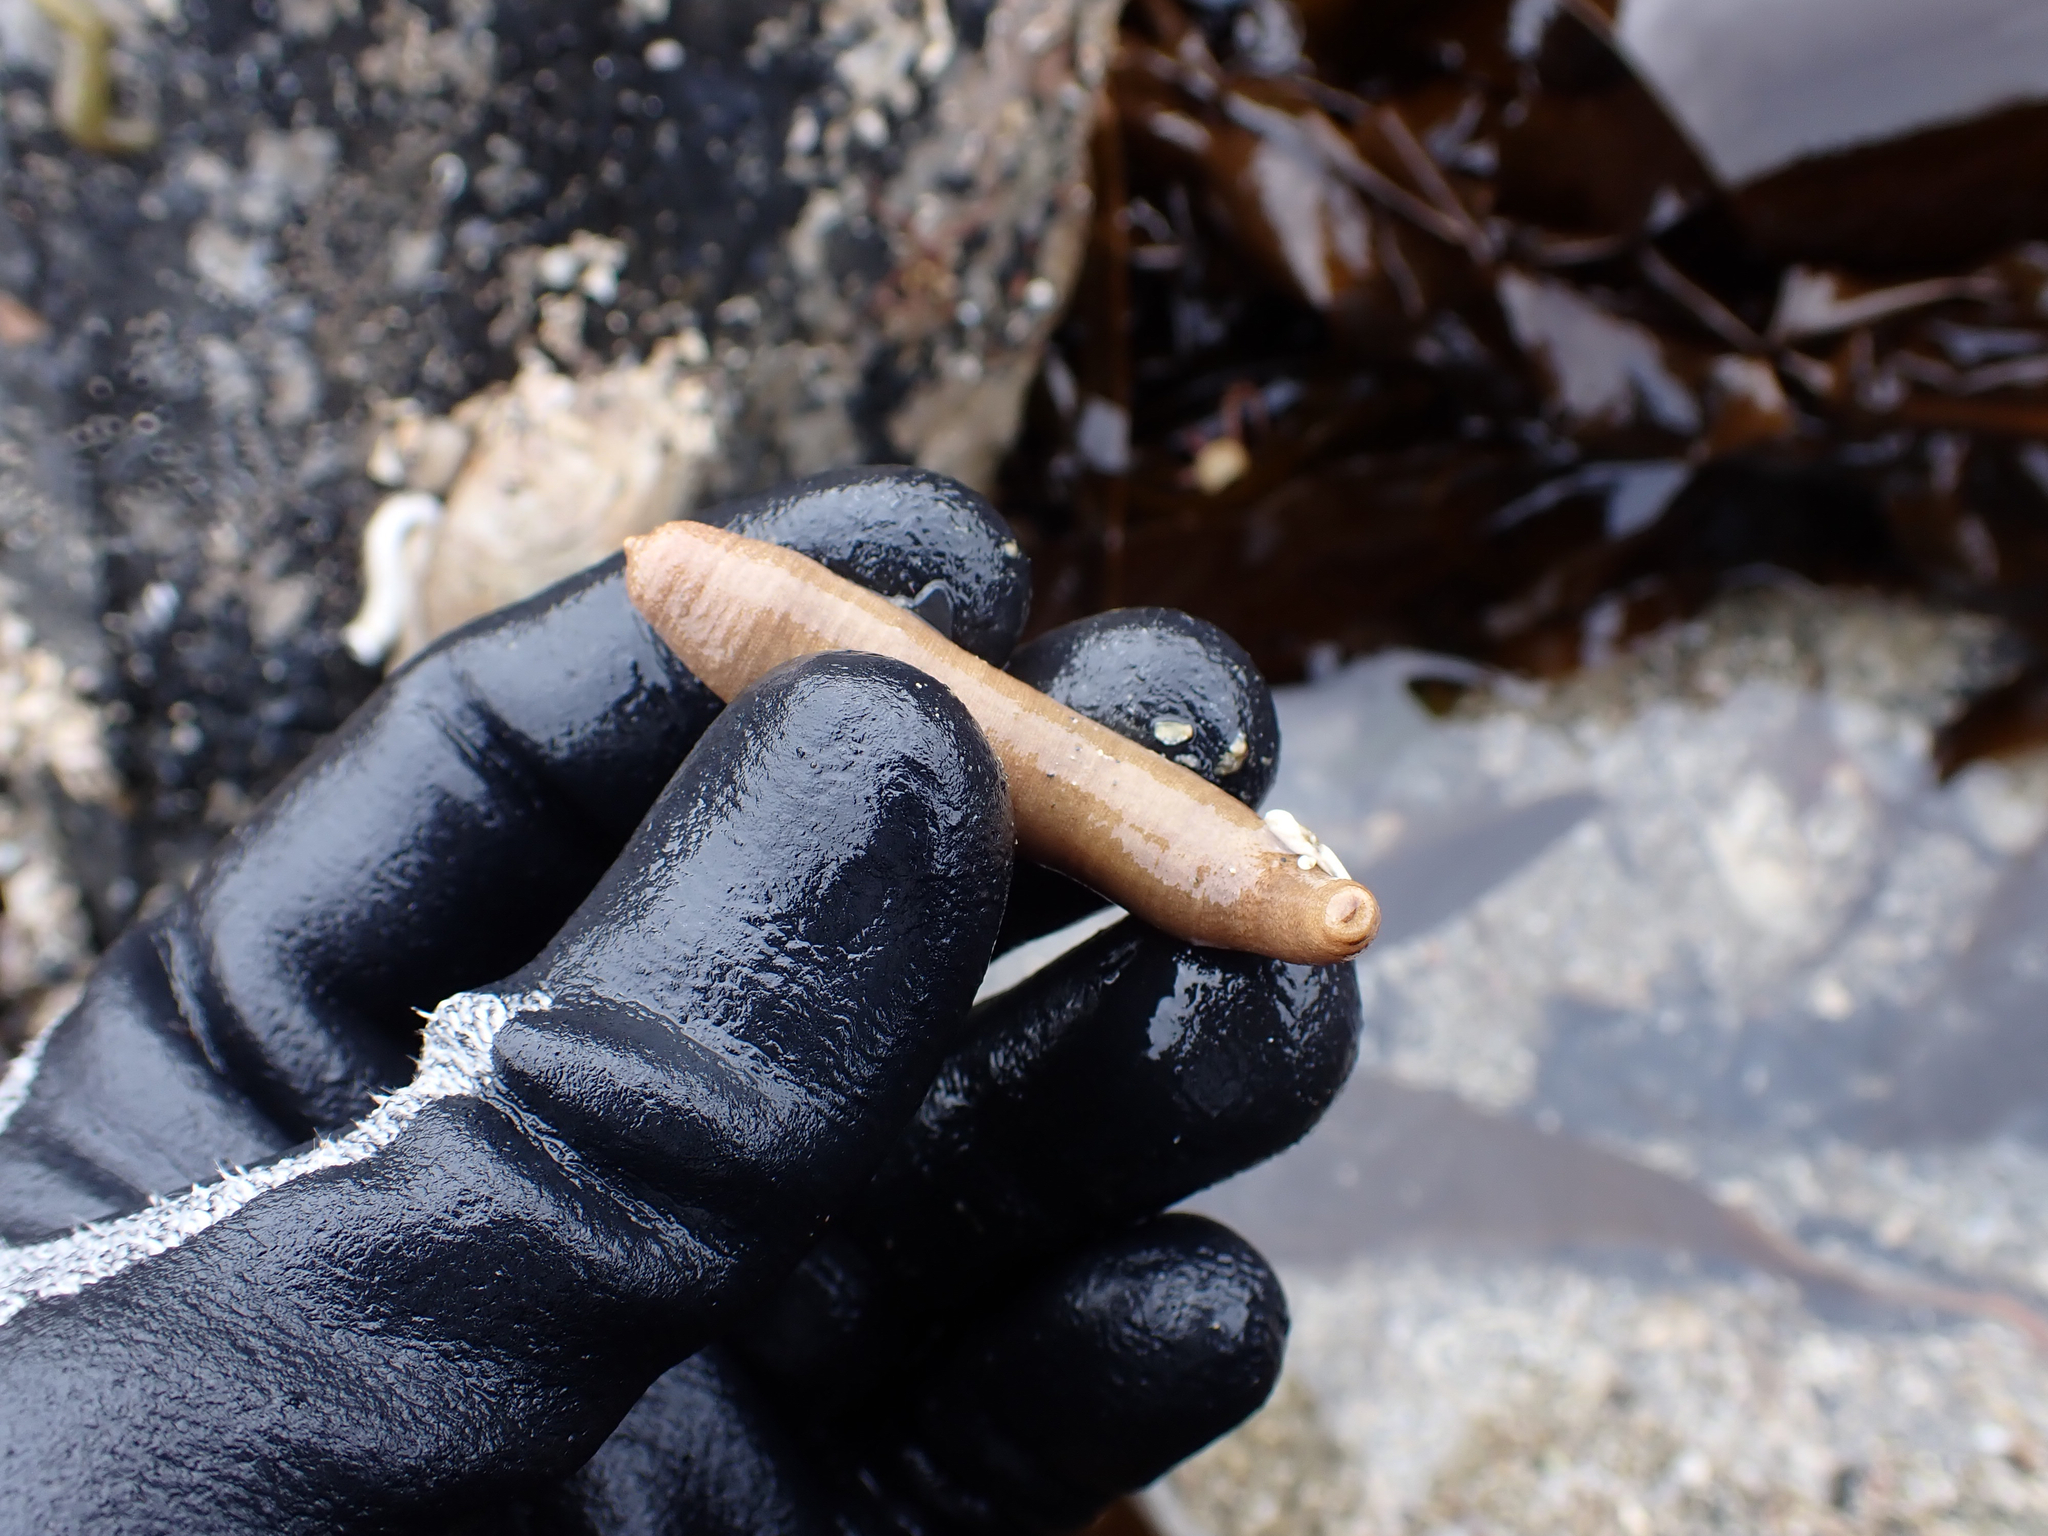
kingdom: Animalia
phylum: Sipuncula
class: Phascolosomatidea
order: Phascolosomatiformes
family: Phascolosomatidae
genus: Phascolosoma
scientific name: Phascolosoma agassizii
